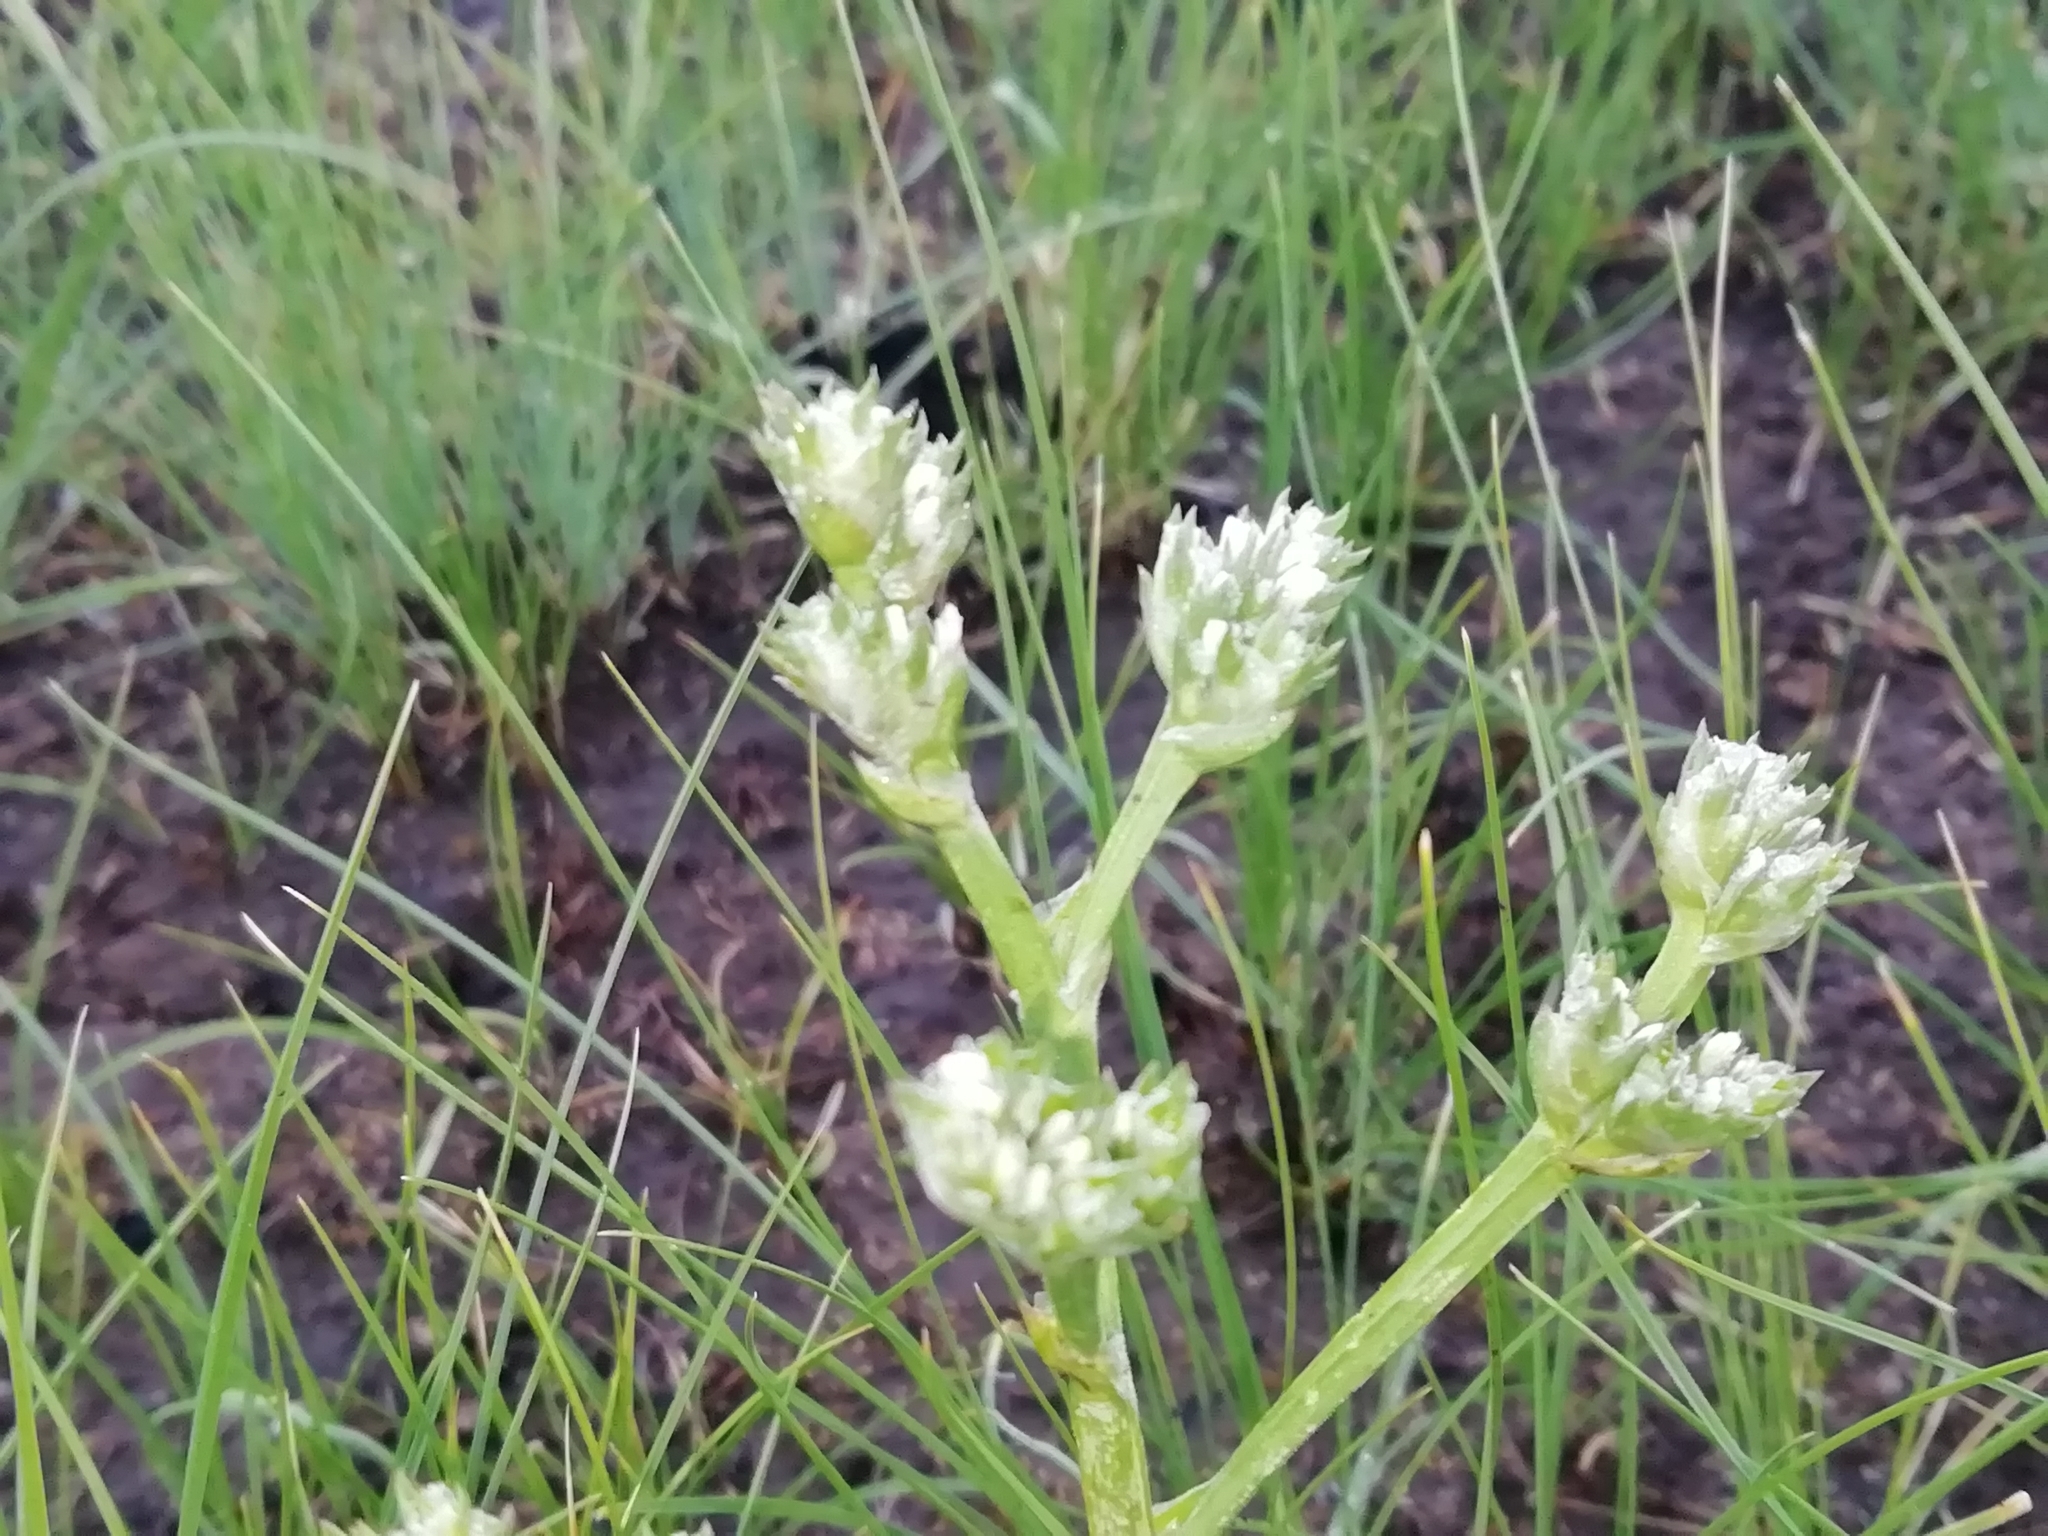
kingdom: Plantae
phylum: Tracheophyta
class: Magnoliopsida
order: Caryophyllales
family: Plumbaginaceae
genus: Goniolimon
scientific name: Goniolimon speciosum
